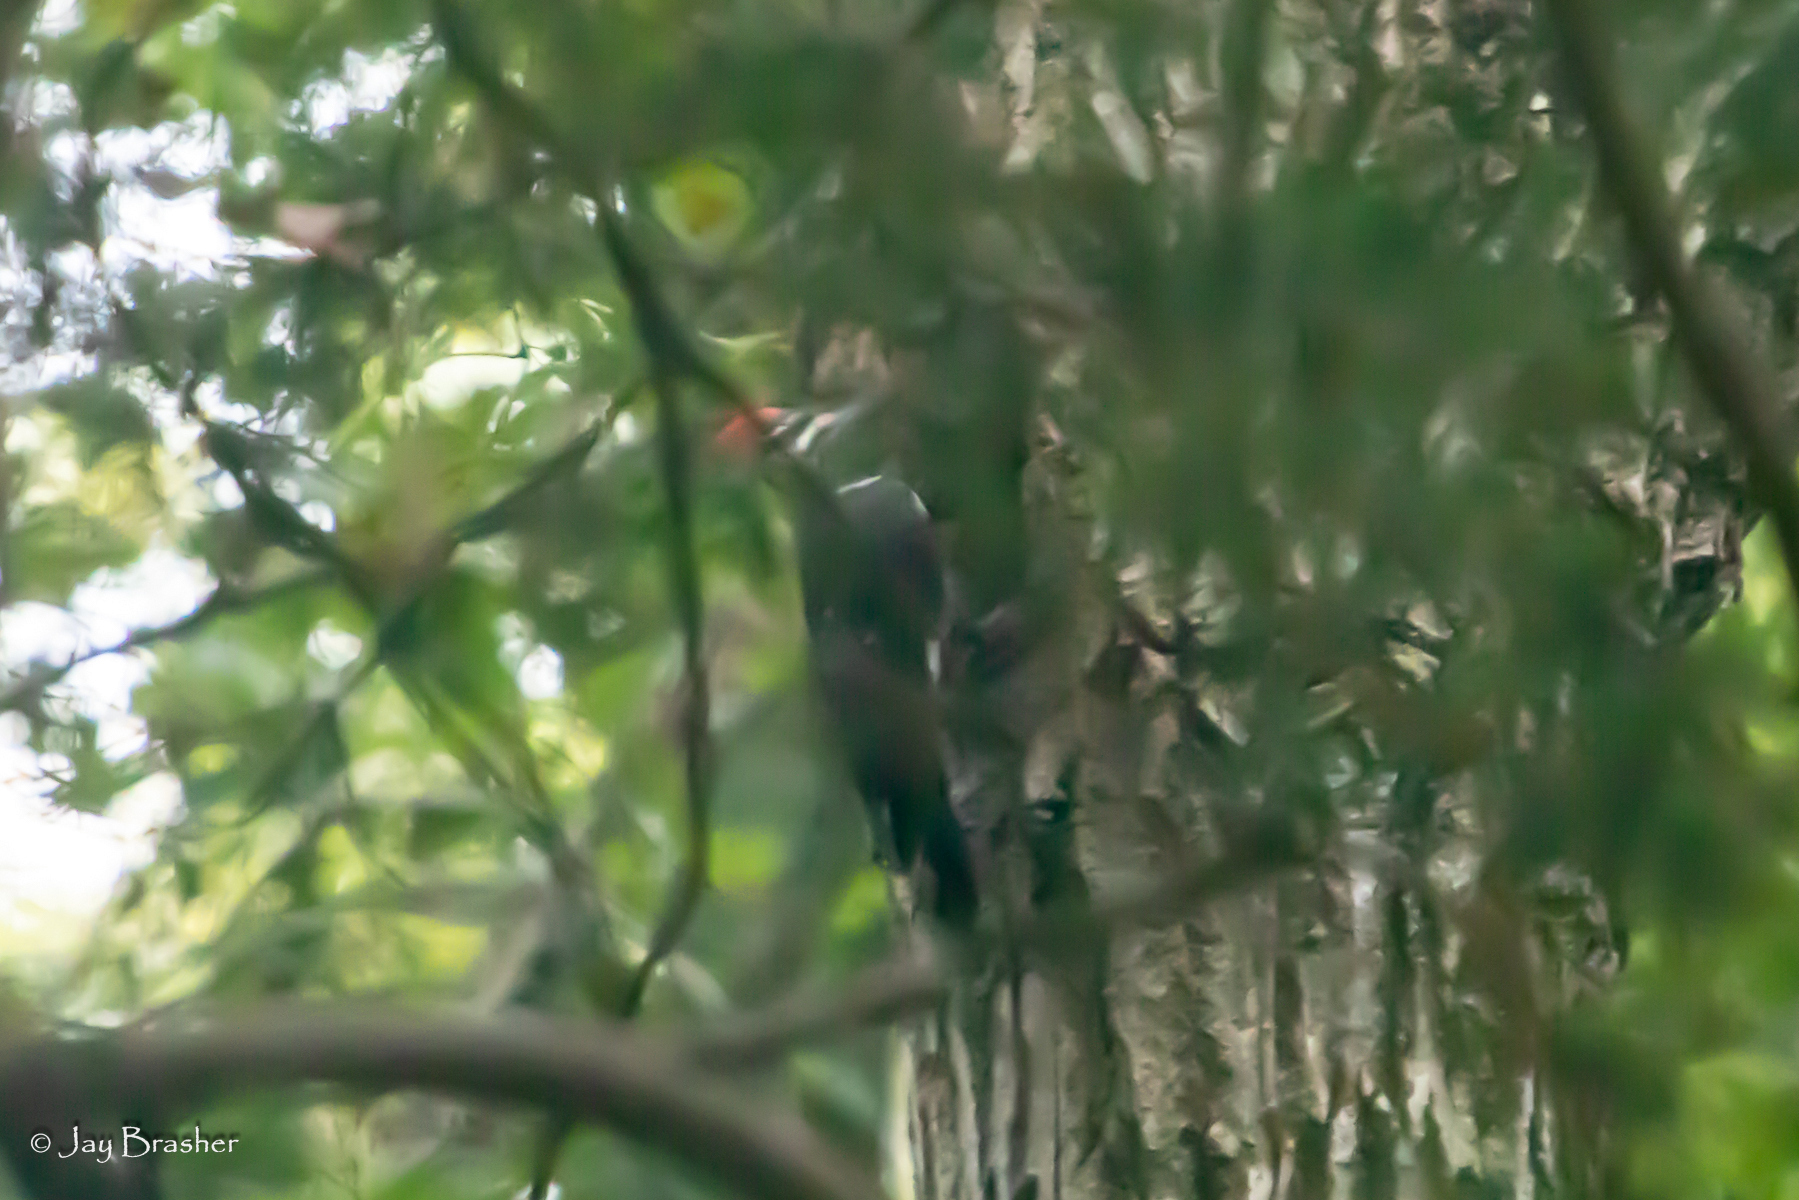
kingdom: Animalia
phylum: Chordata
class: Aves
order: Piciformes
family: Picidae
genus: Dryocopus
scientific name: Dryocopus pileatus
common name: Pileated woodpecker
